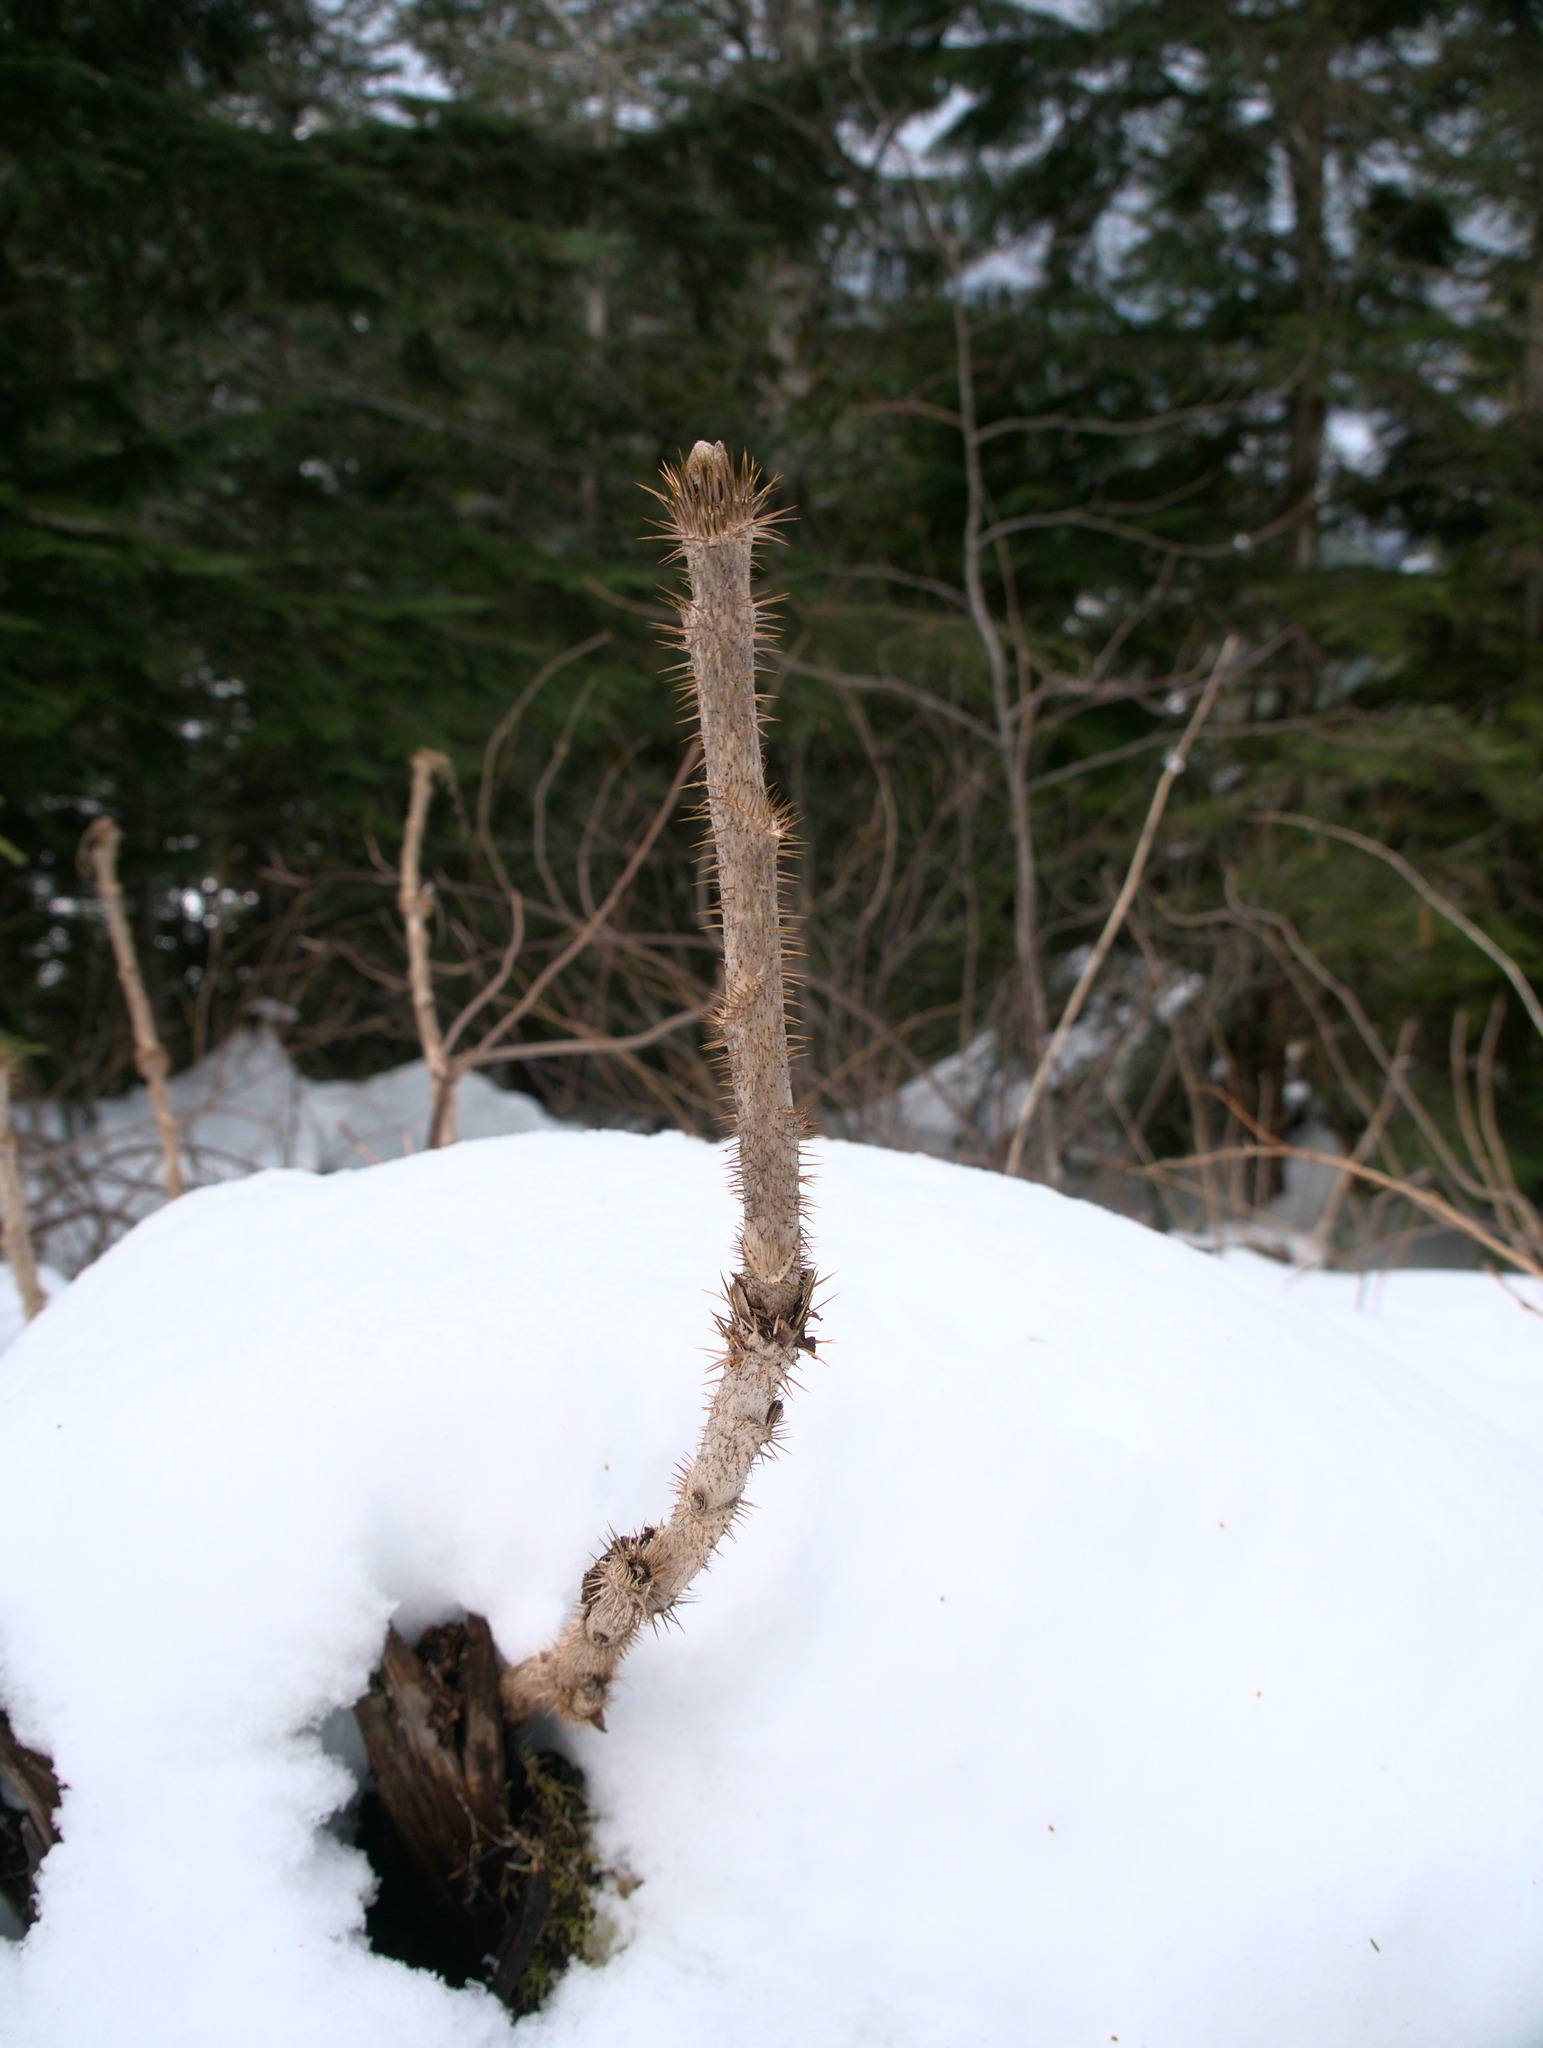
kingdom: Plantae
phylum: Tracheophyta
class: Magnoliopsida
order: Apiales
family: Araliaceae
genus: Oplopanax
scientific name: Oplopanax horridus
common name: Devil's walking-stick
